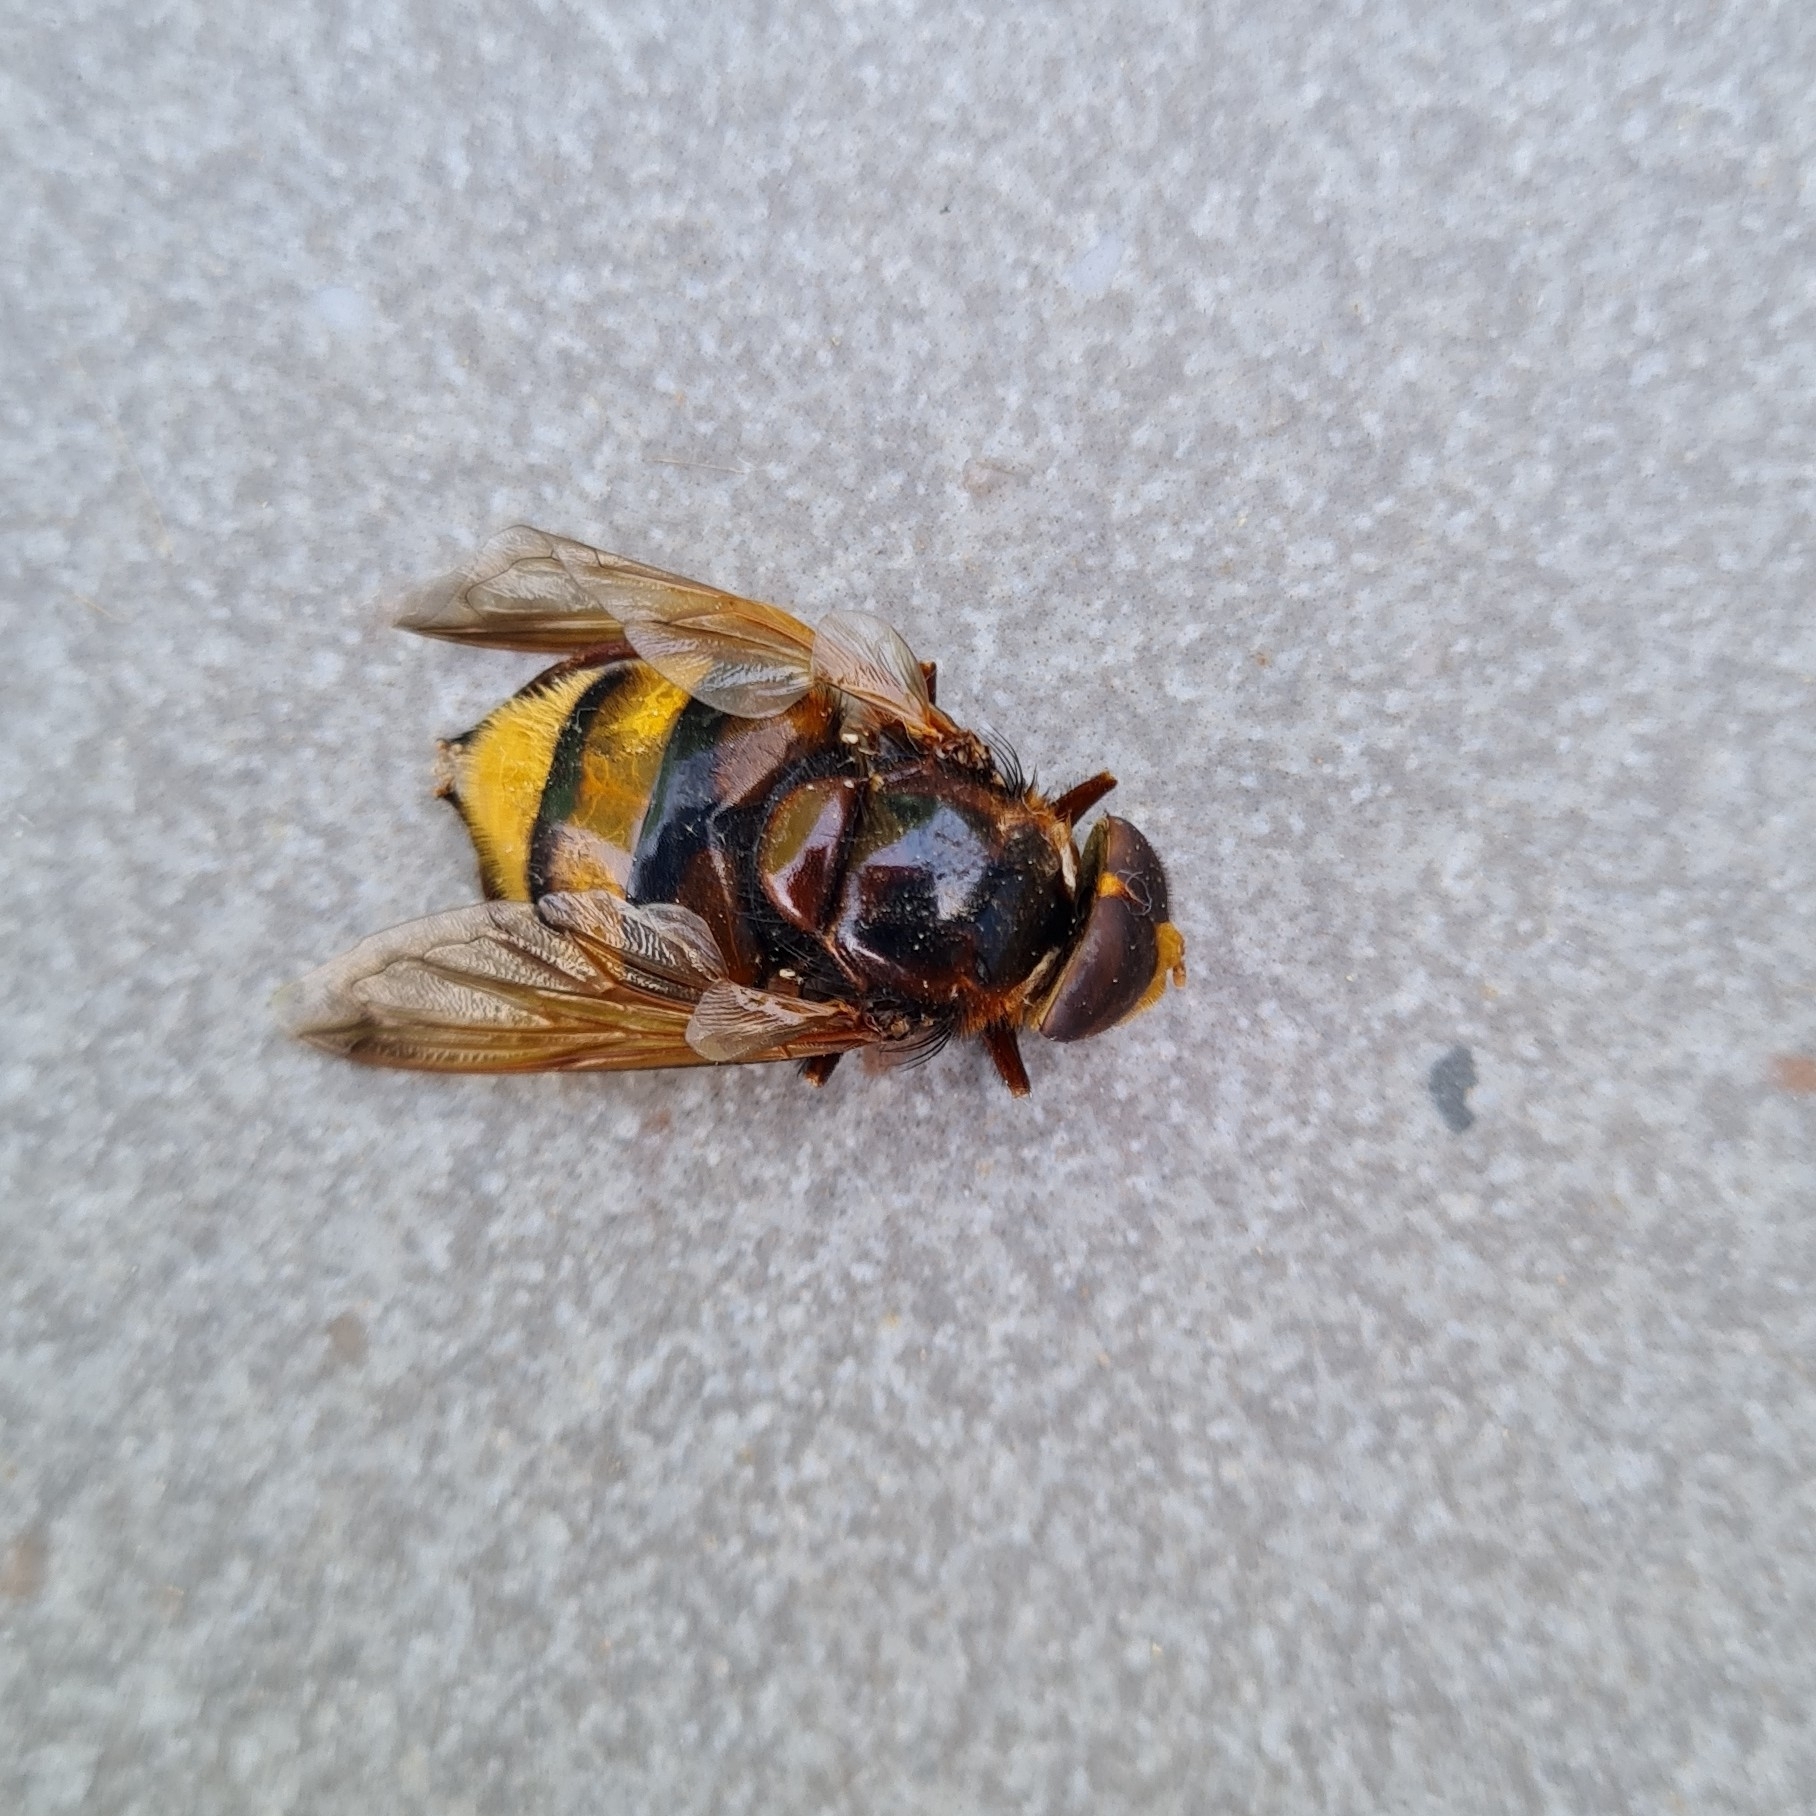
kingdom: Animalia
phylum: Arthropoda
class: Insecta
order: Diptera
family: Syrphidae
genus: Volucella
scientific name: Volucella zonaria
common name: Hornet hoverfly
